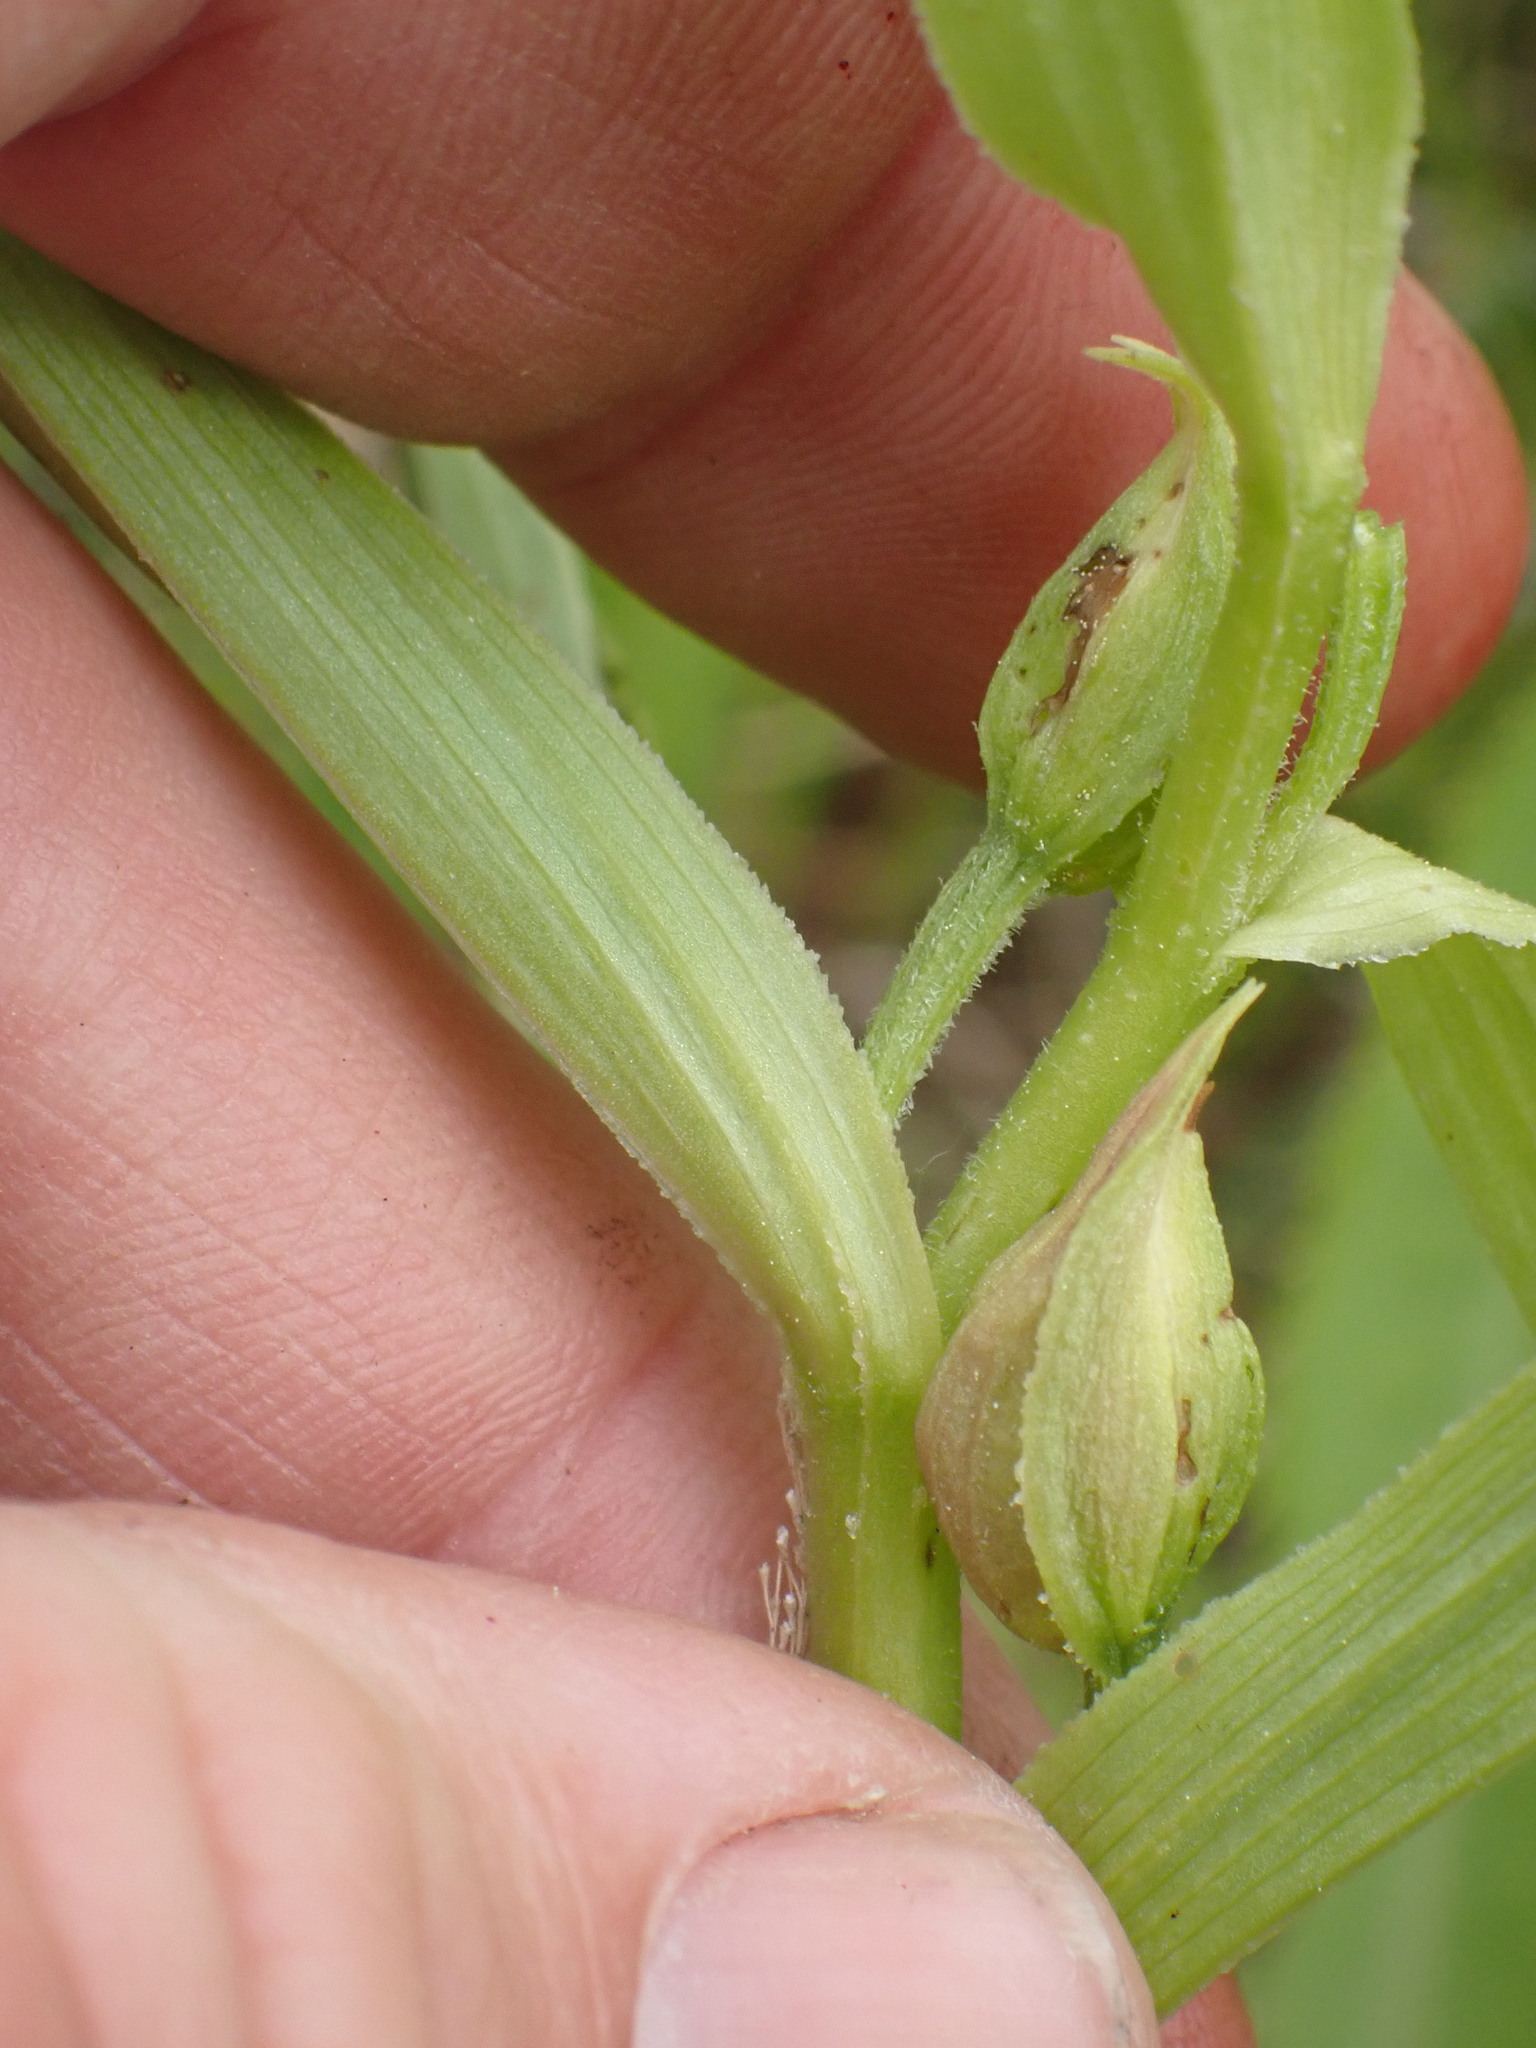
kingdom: Plantae
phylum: Tracheophyta
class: Liliopsida
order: Asparagales
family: Orchidaceae
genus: Epipactis
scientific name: Epipactis gigantea
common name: Chatterbox
